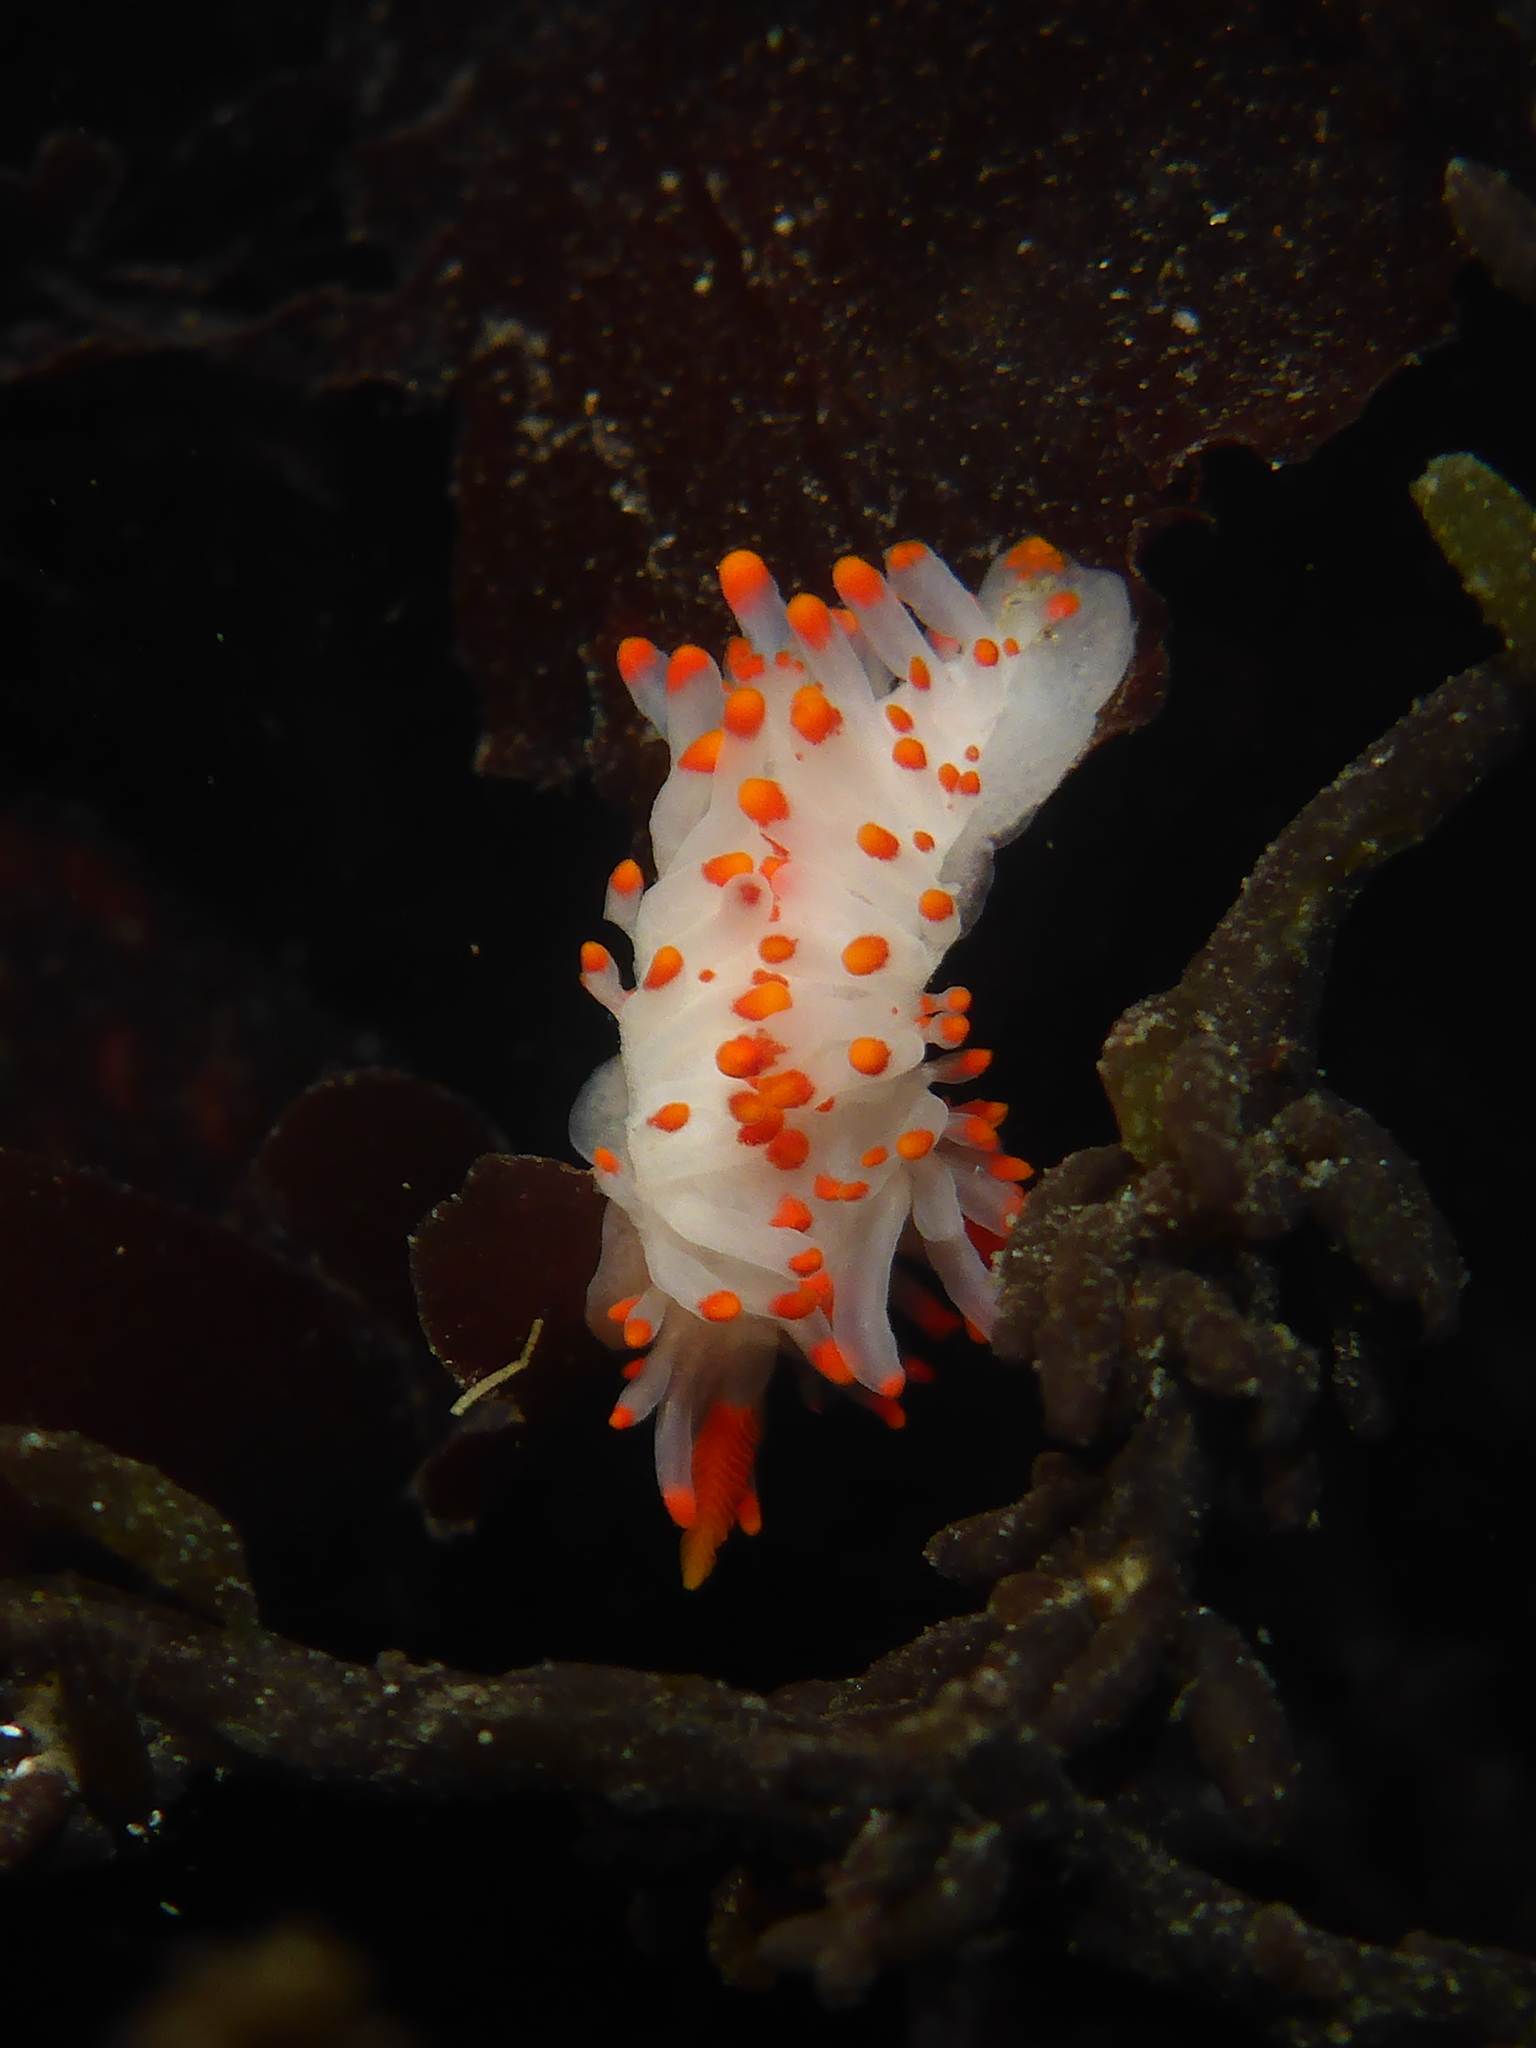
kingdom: Animalia
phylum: Mollusca
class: Gastropoda
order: Nudibranchia
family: Polyceridae
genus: Limacia
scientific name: Limacia mcdonaldi
